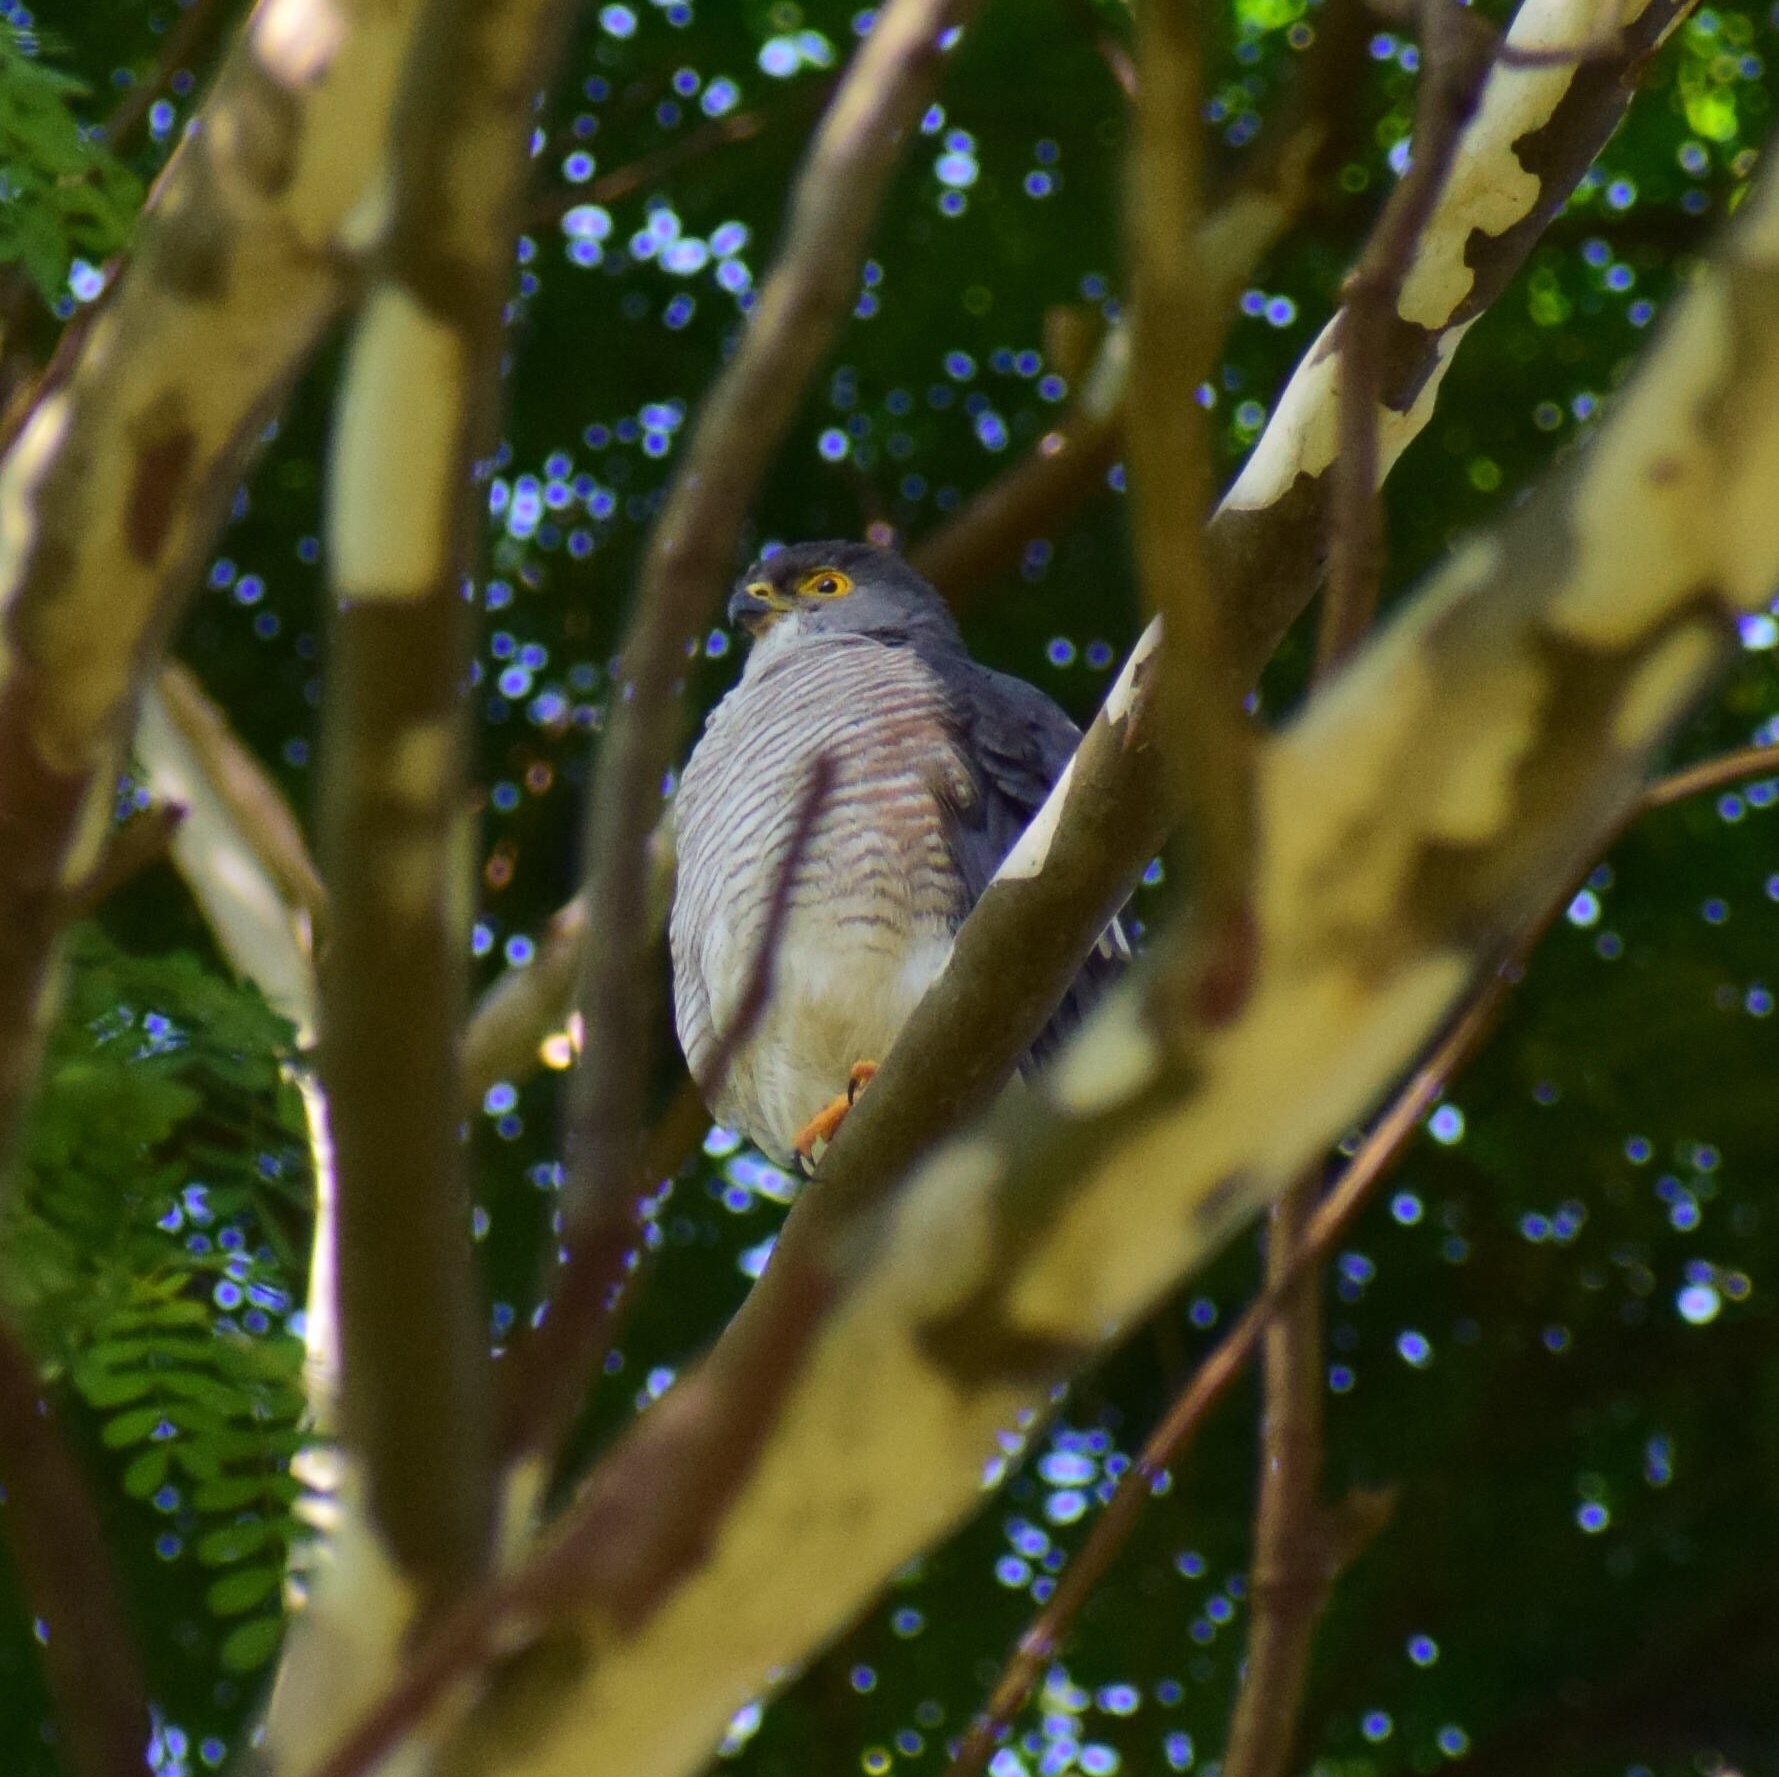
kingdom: Animalia
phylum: Chordata
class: Aves
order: Accipitriformes
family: Accipitridae
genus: Accipiter
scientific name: Accipiter minullus
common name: Little sparrowhawk
